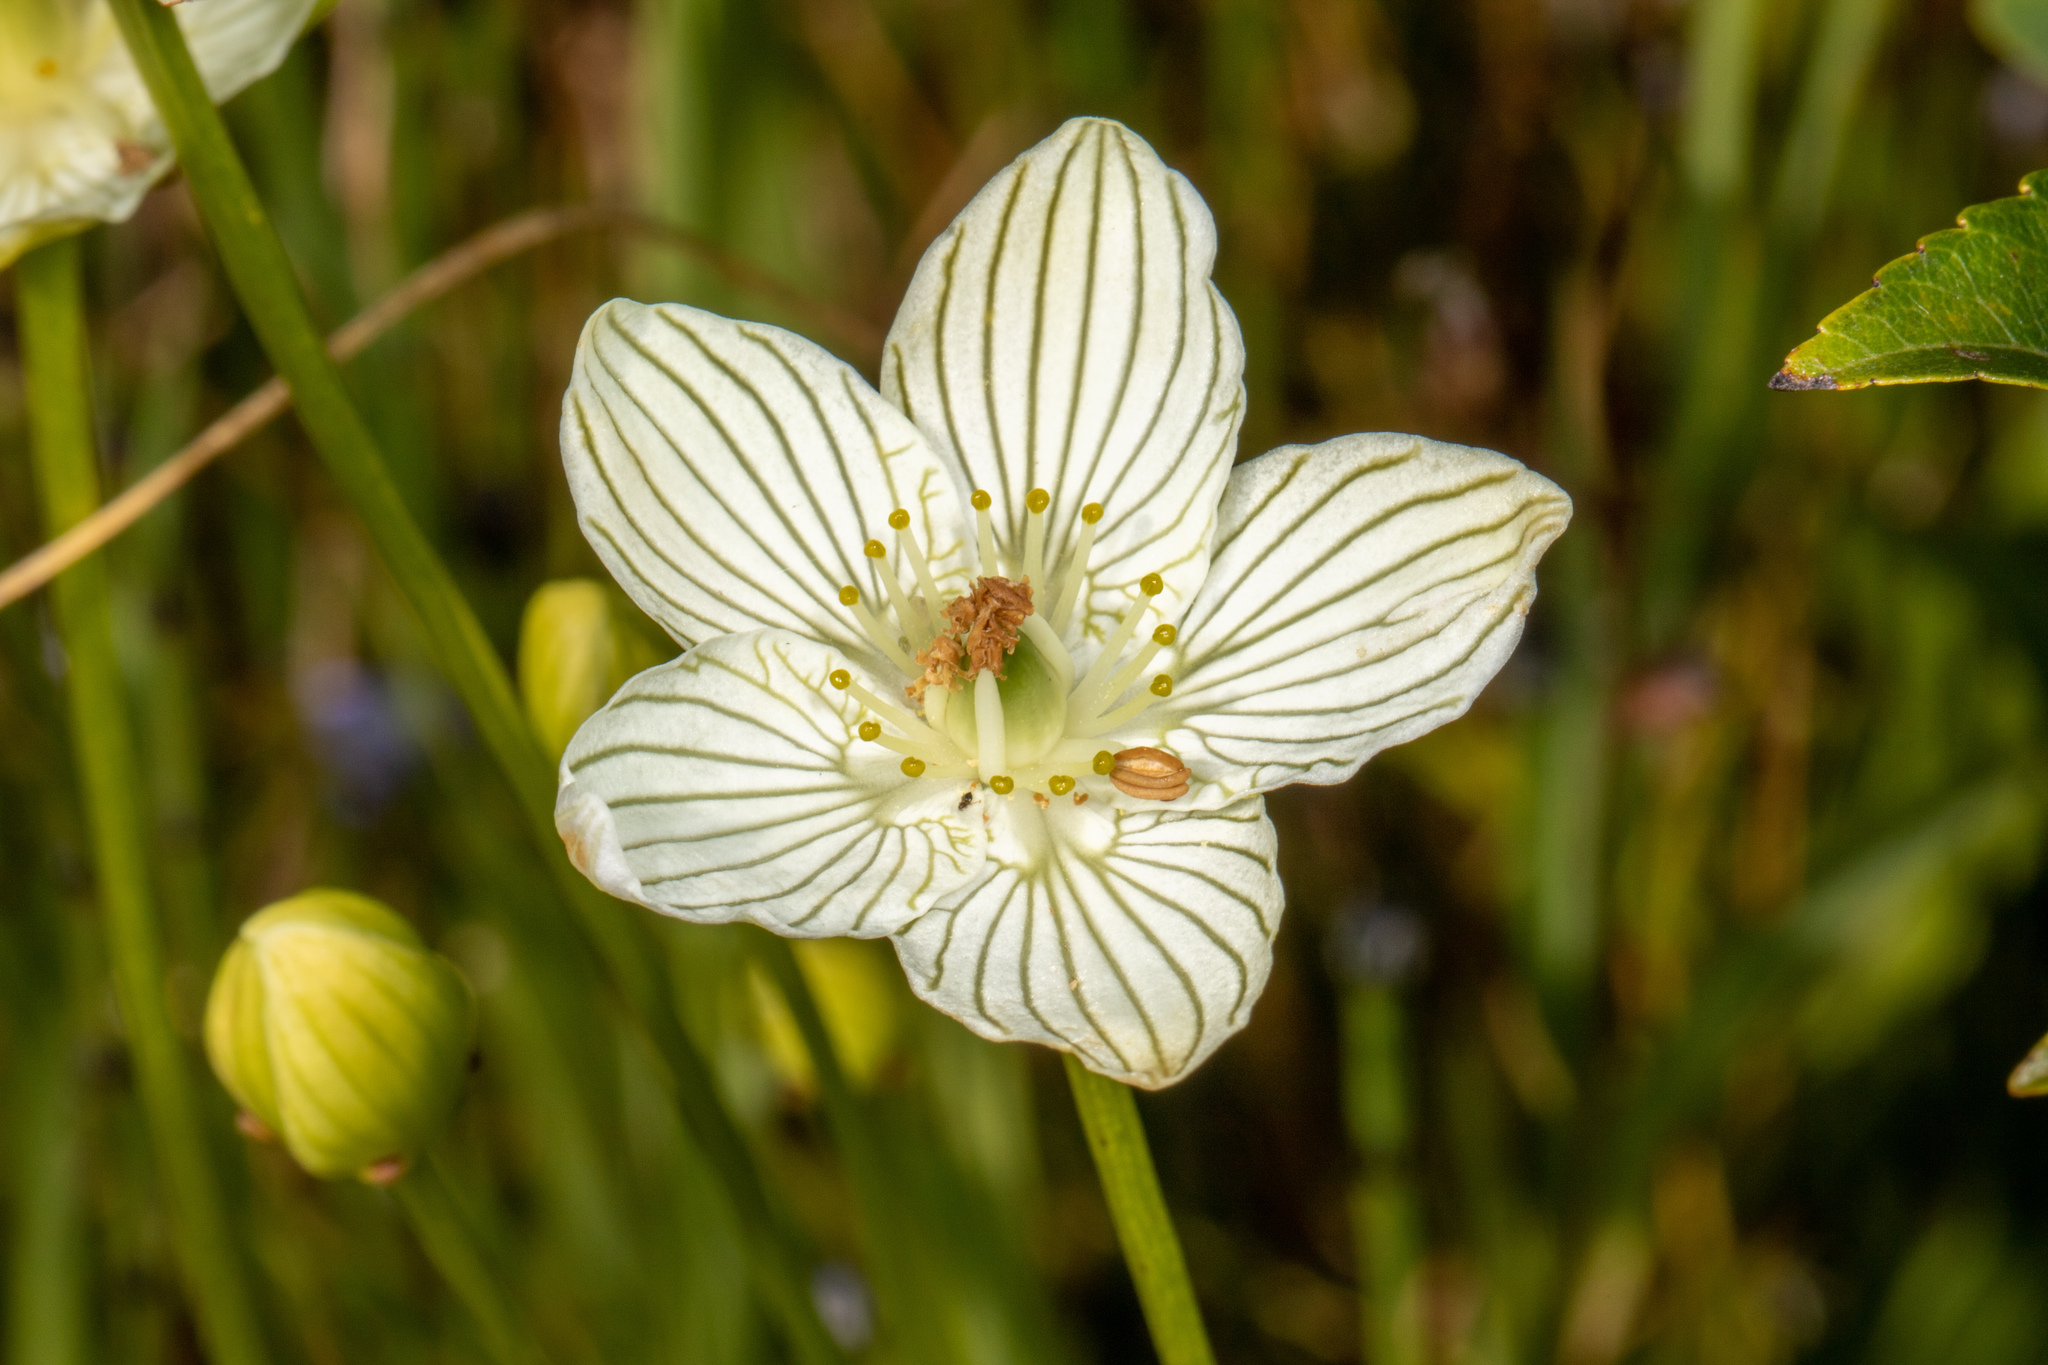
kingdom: Plantae
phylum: Tracheophyta
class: Magnoliopsida
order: Celastrales
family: Parnassiaceae
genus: Parnassia
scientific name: Parnassia glauca
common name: American grass-of-parnassus
